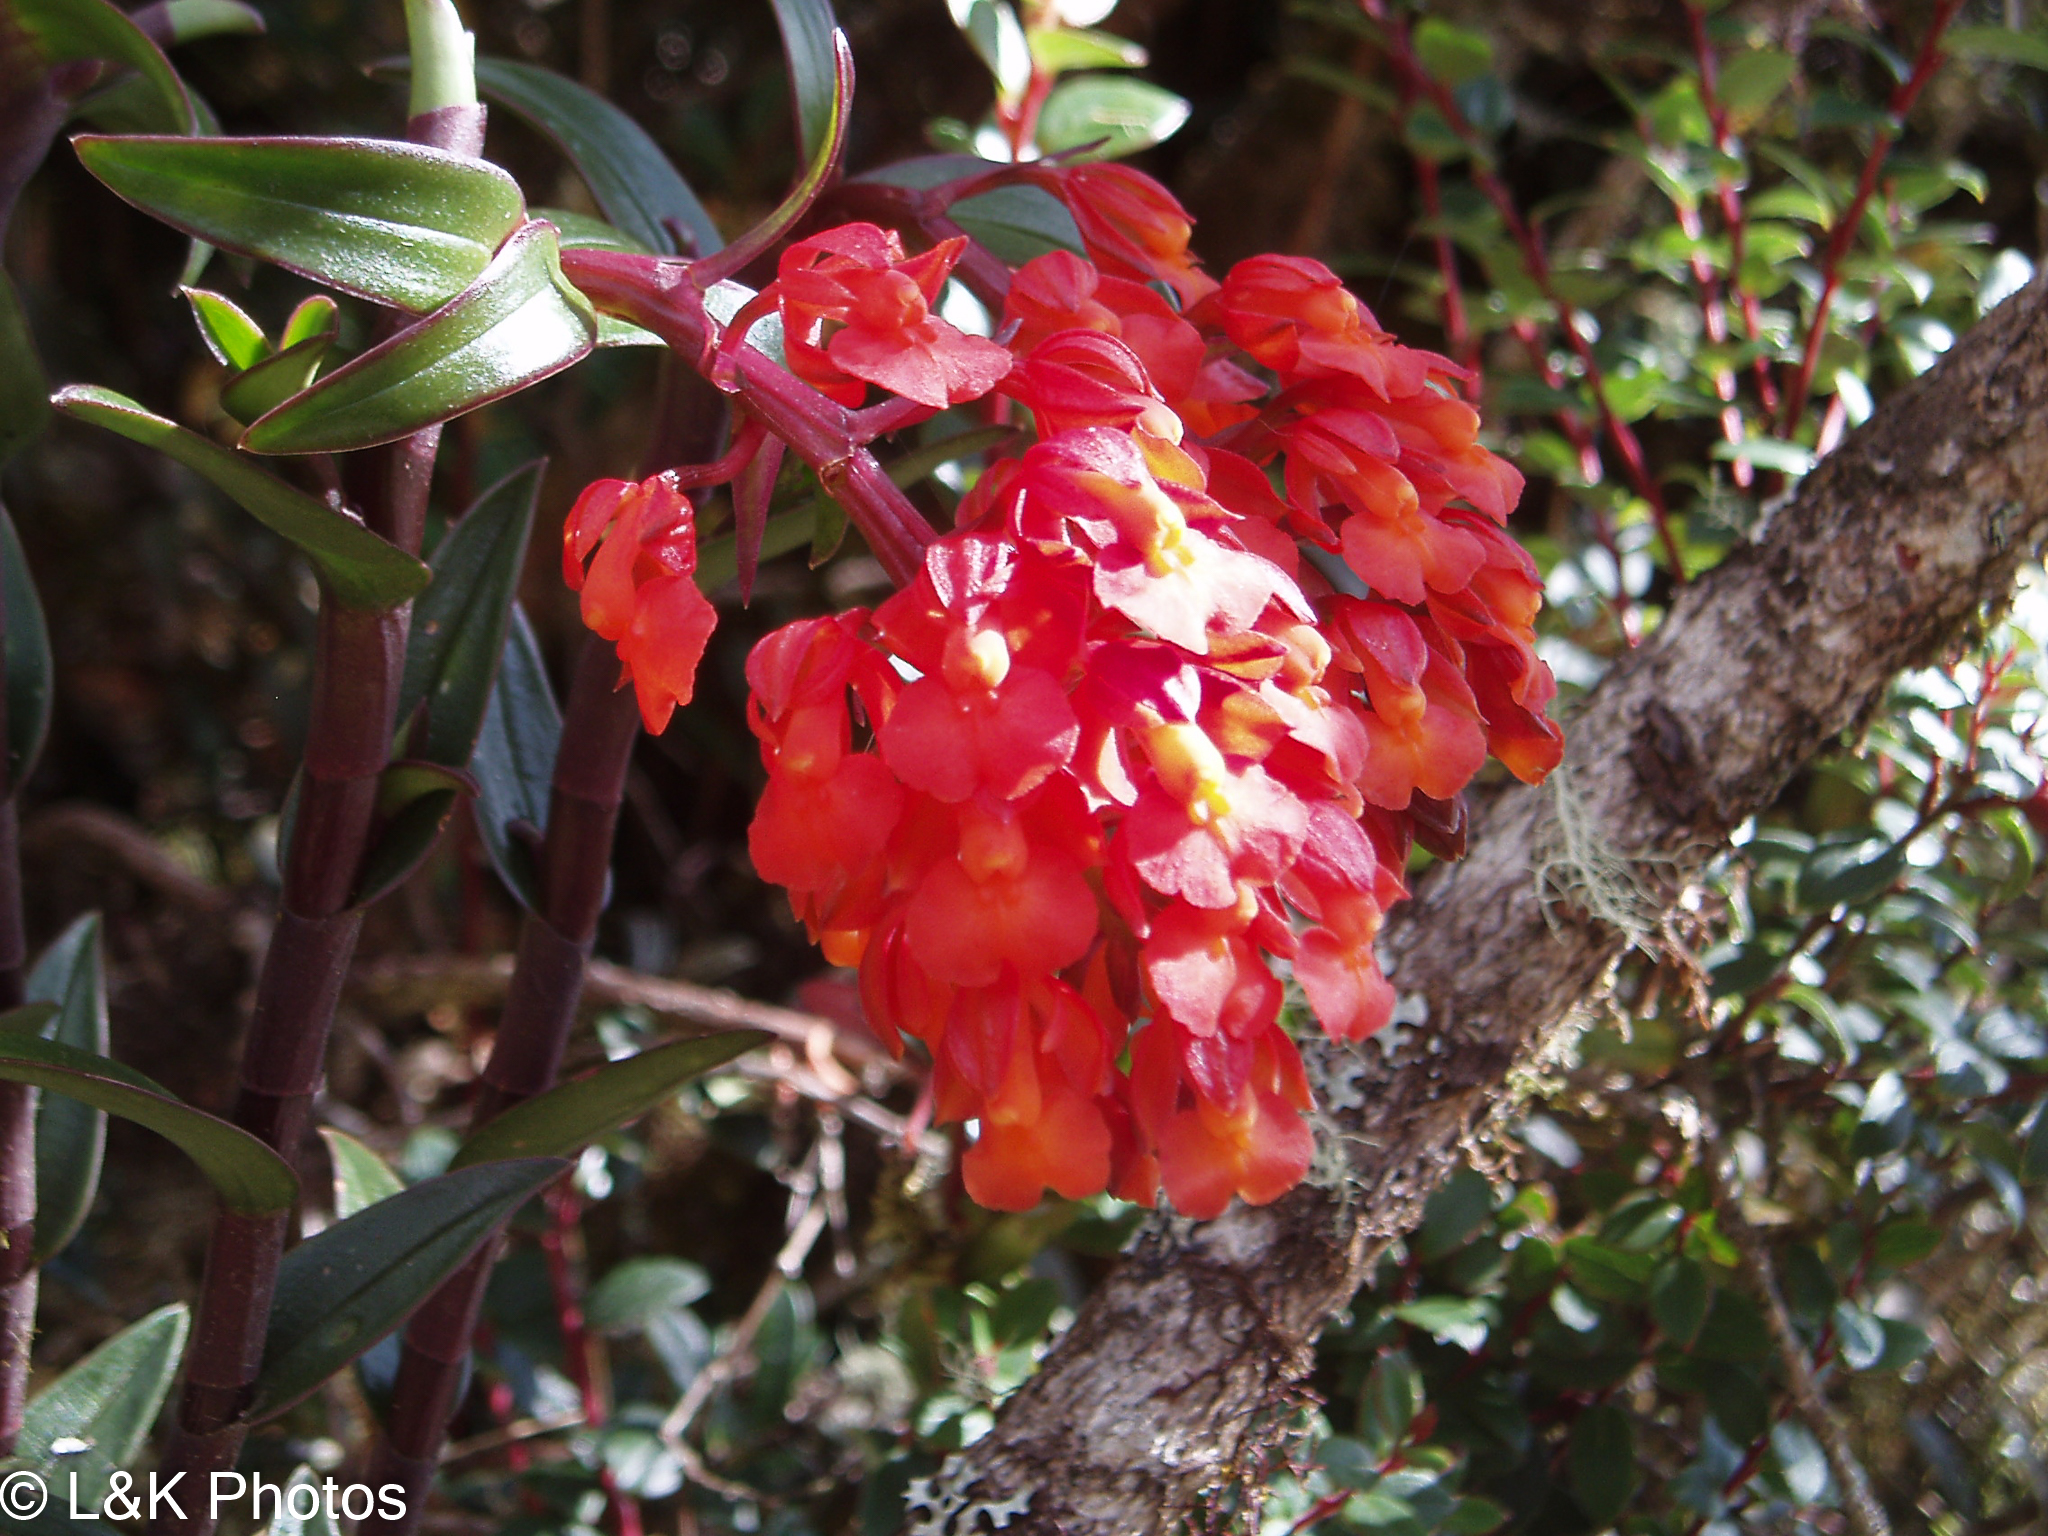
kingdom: Plantae
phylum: Tracheophyta
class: Liliopsida
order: Asparagales
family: Orchidaceae
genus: Epidendrum
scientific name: Epidendrum ardens
